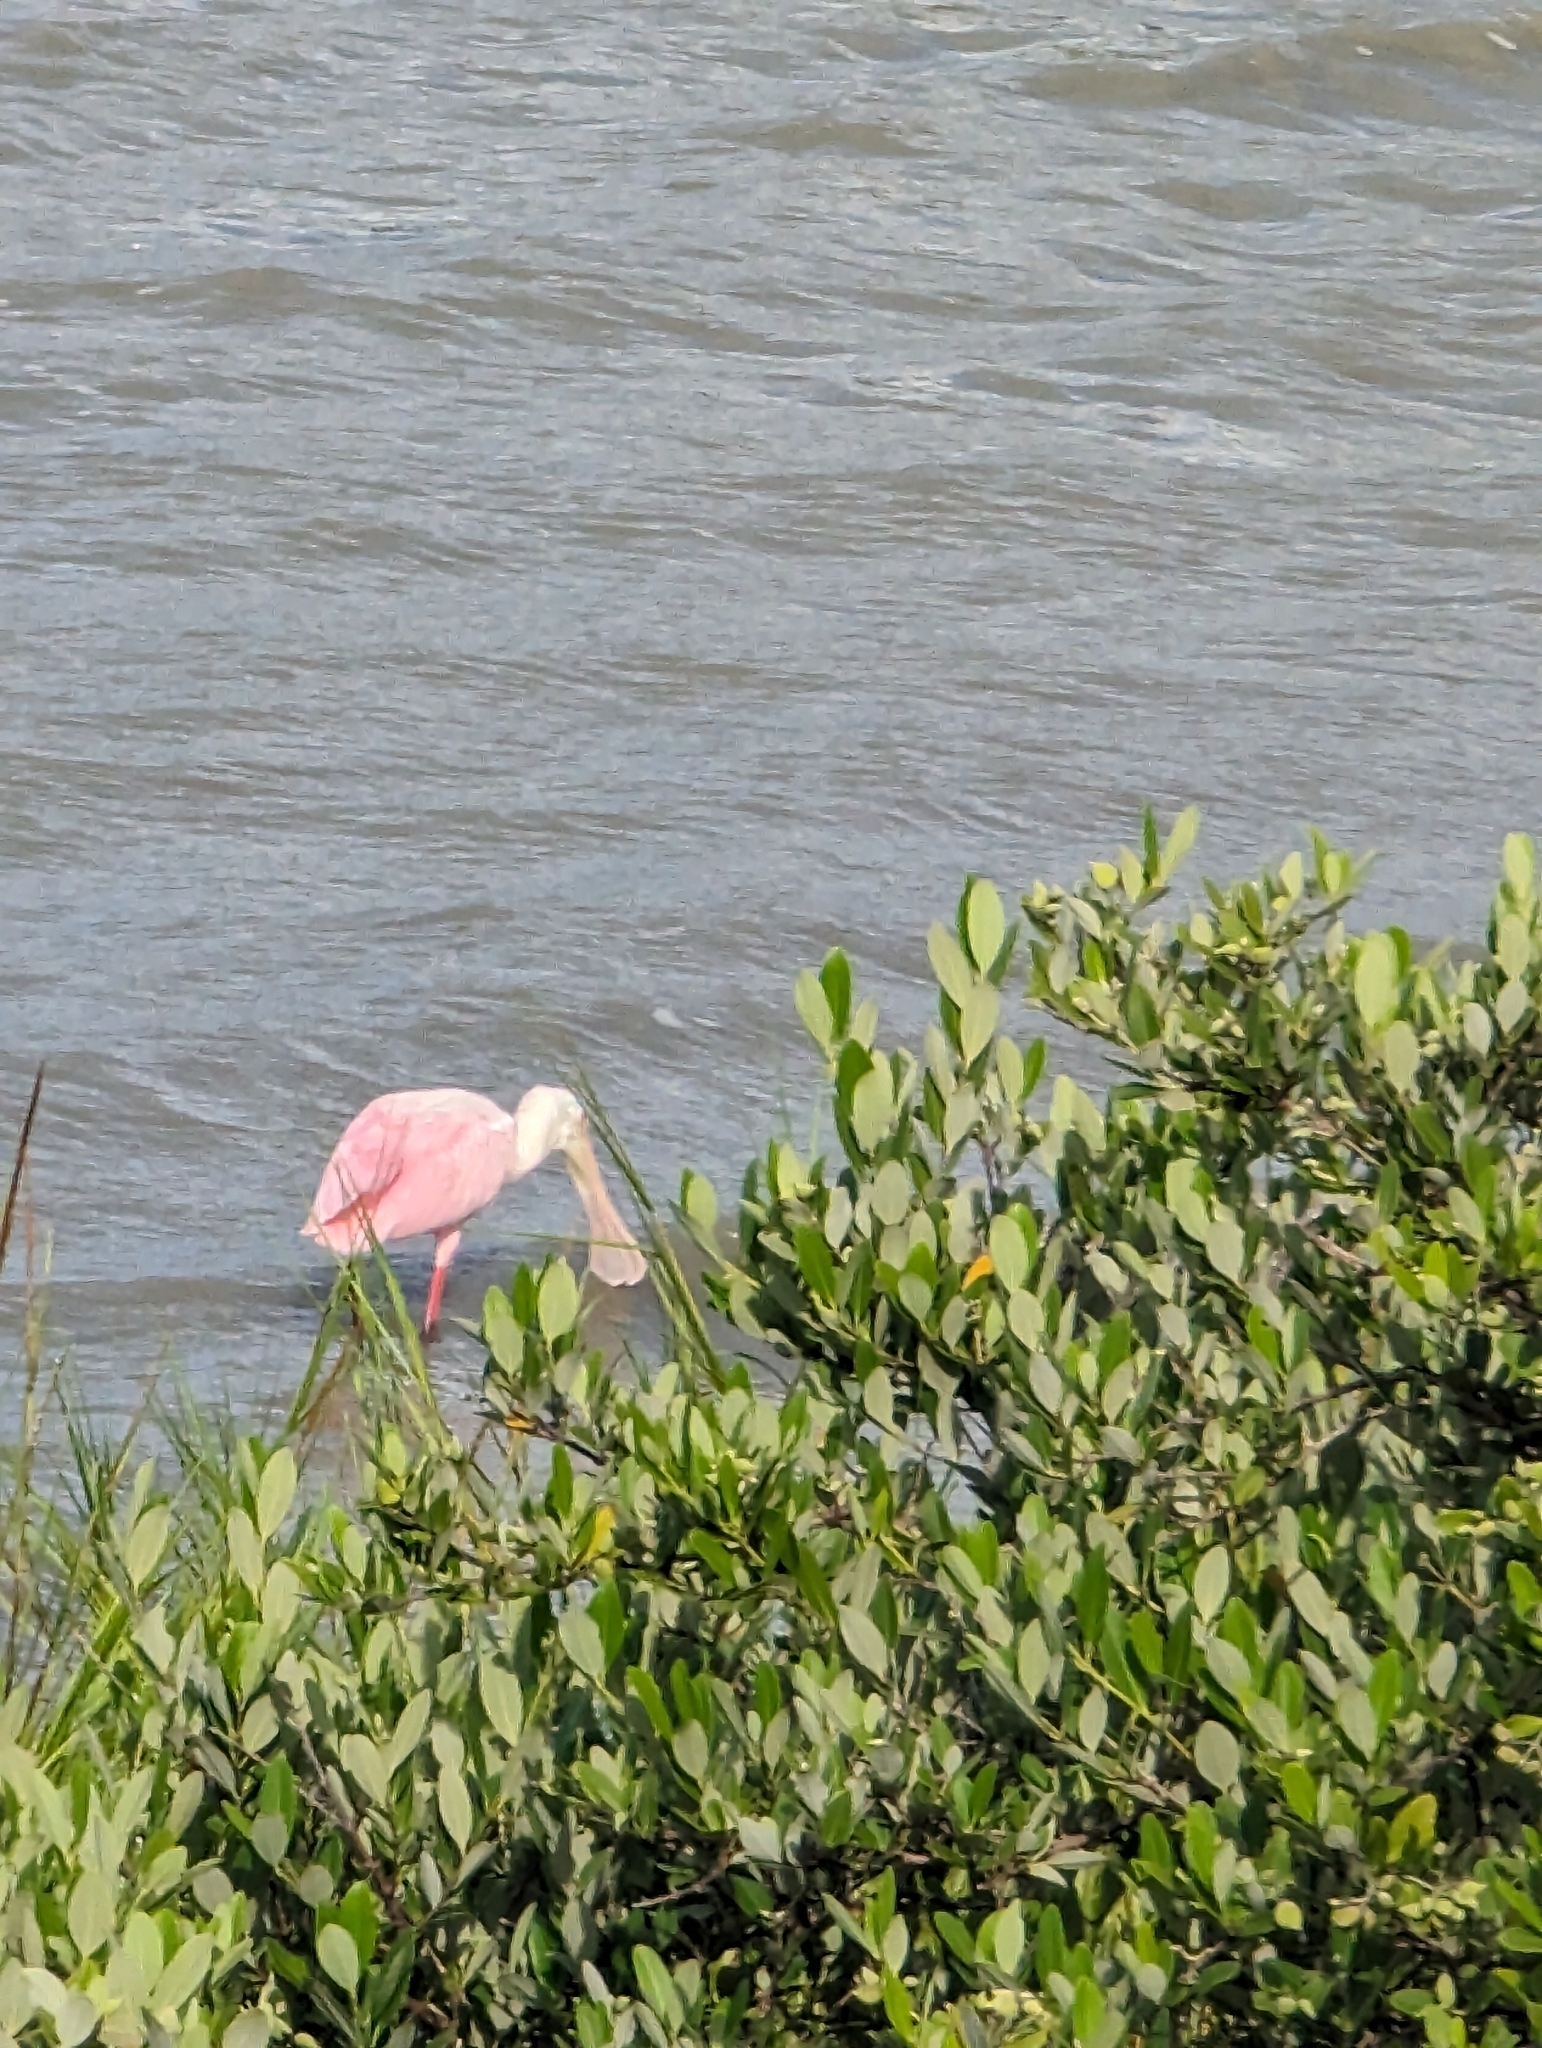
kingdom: Animalia
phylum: Chordata
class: Aves
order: Pelecaniformes
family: Threskiornithidae
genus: Platalea
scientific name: Platalea ajaja
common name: Roseate spoonbill
